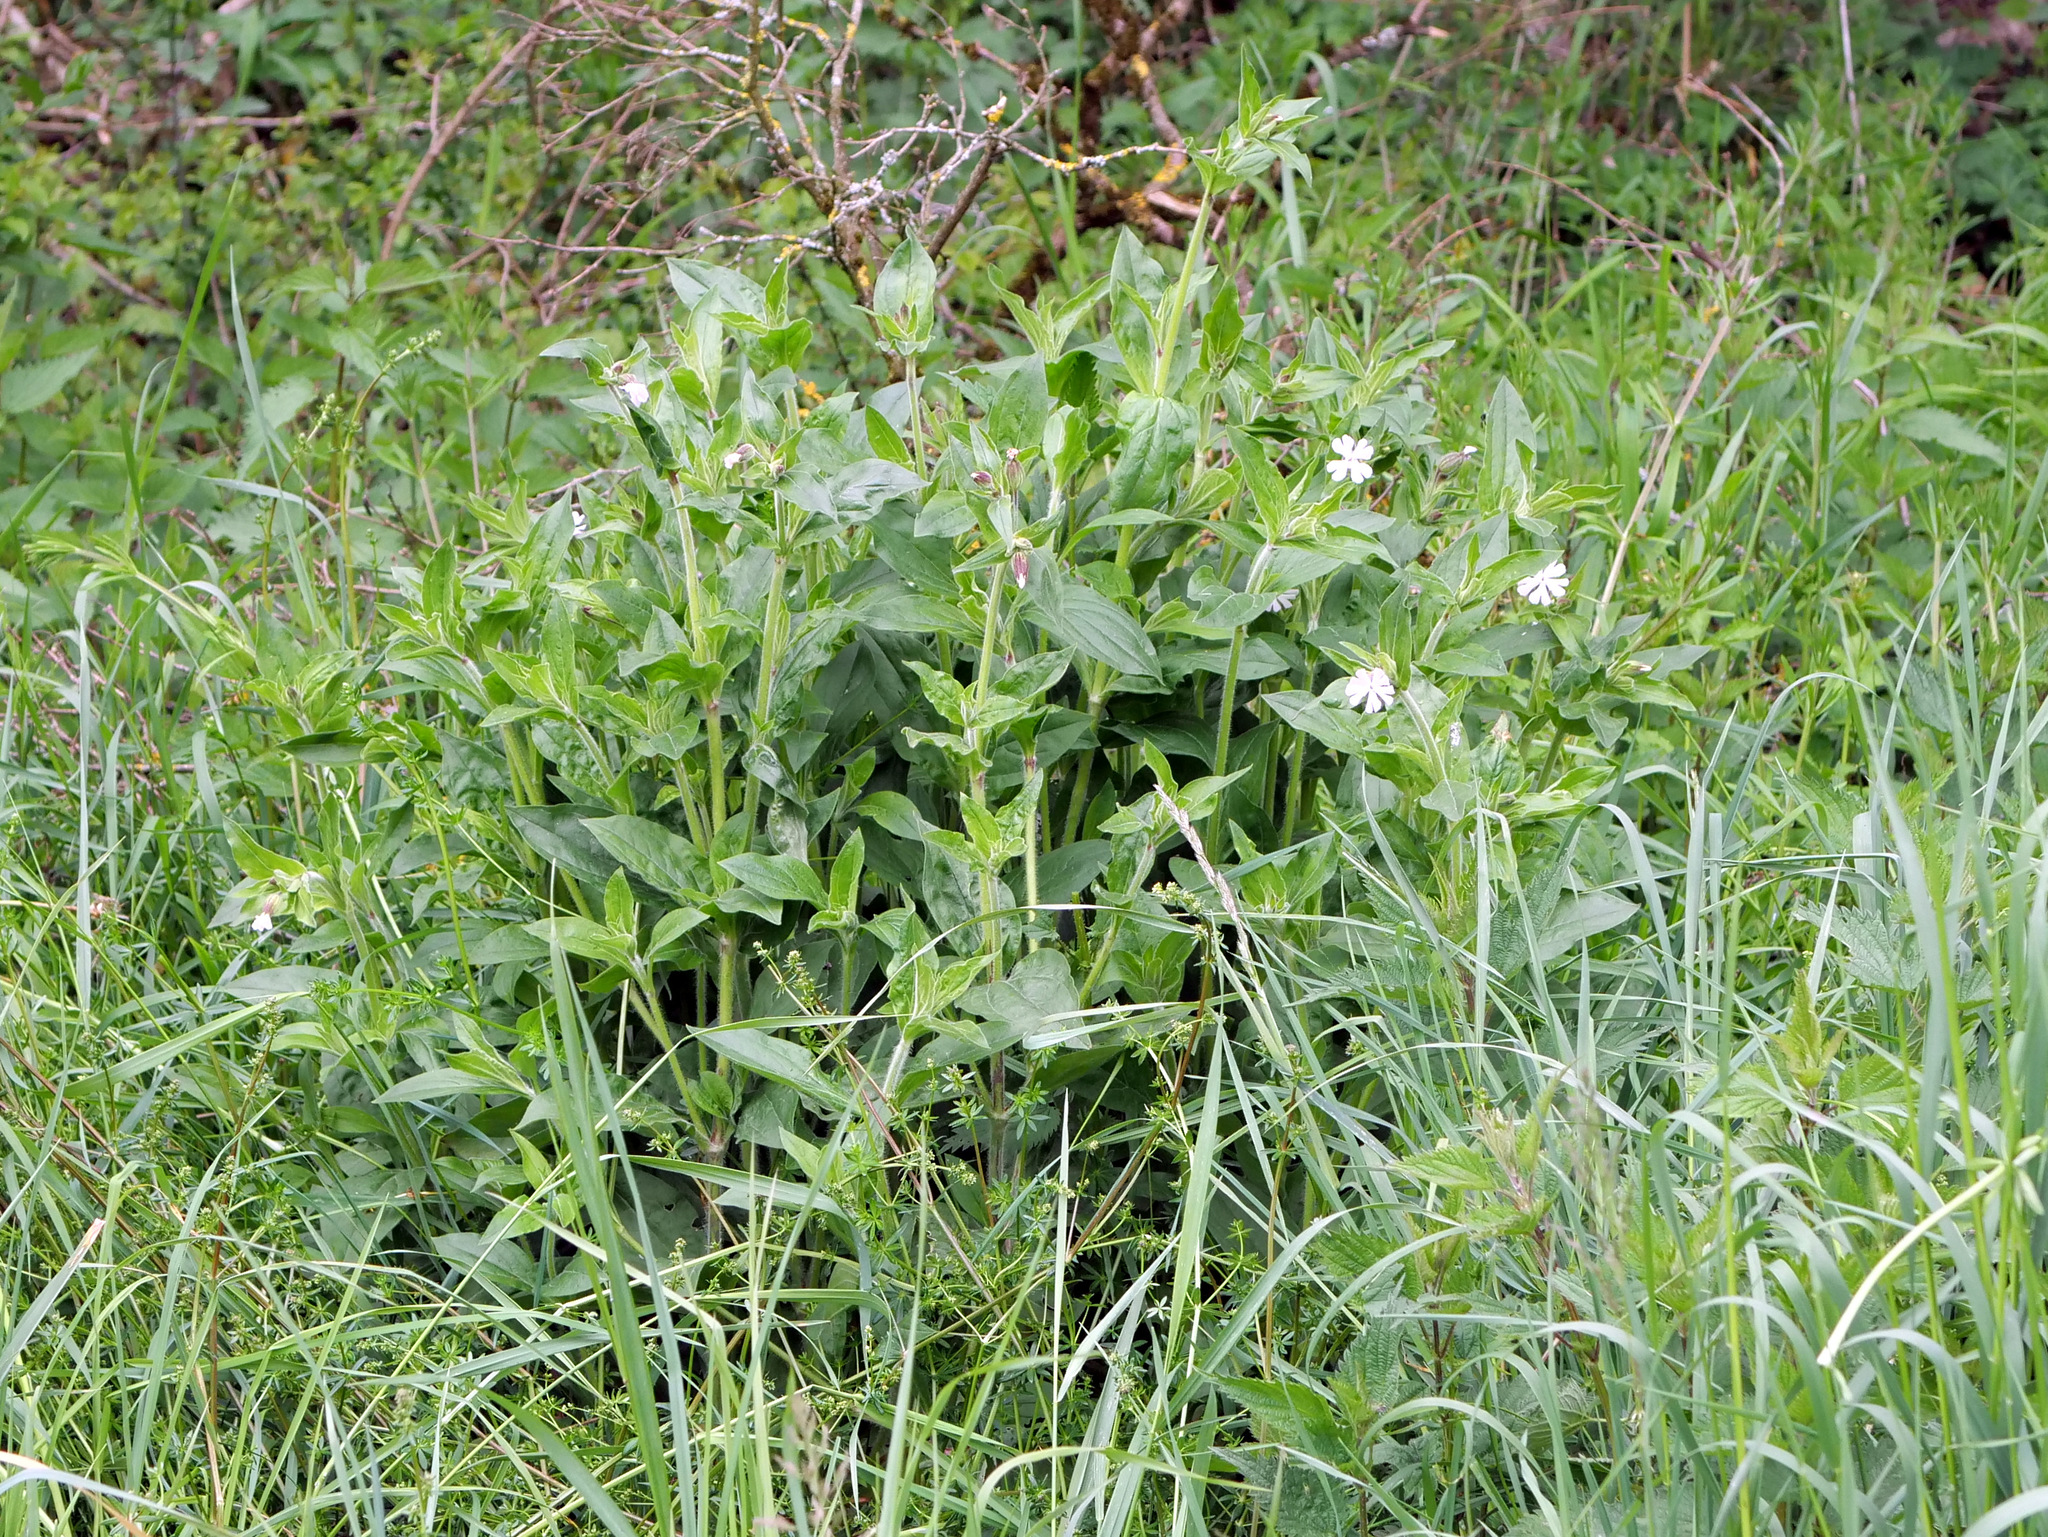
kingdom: Plantae
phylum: Tracheophyta
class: Magnoliopsida
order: Caryophyllales
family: Caryophyllaceae
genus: Silene
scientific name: Silene latifolia
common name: White campion
